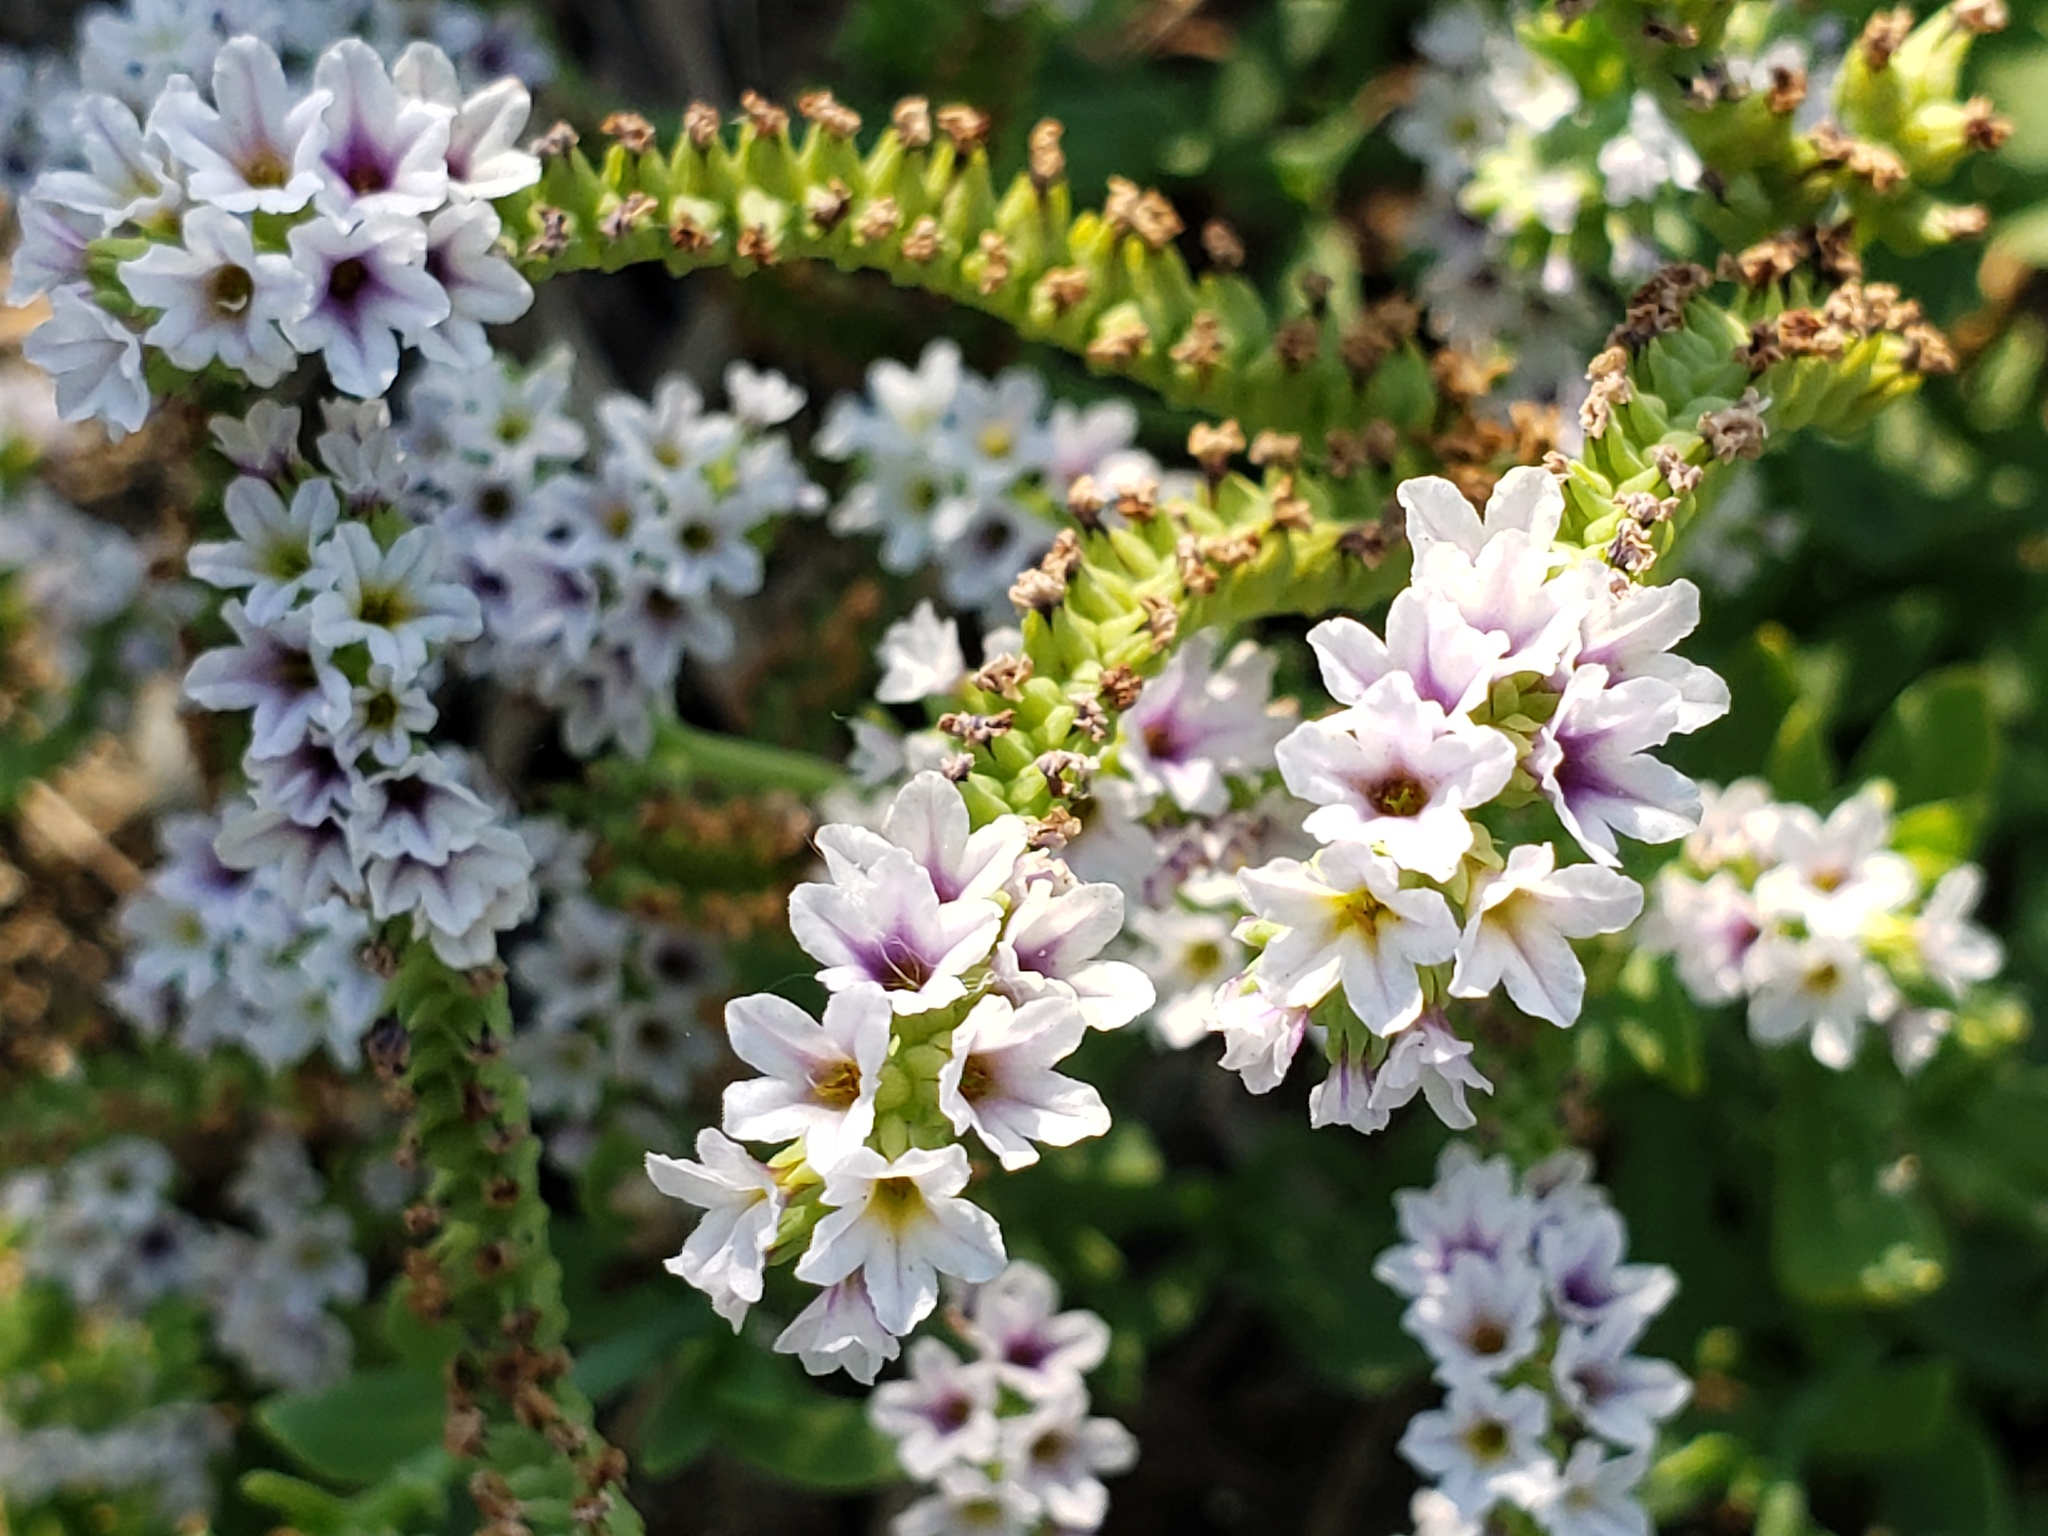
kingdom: Plantae
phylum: Tracheophyta
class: Magnoliopsida
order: Boraginales
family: Heliotropiaceae
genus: Heliotropium
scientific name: Heliotropium curassavicum
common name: Seaside heliotrope
